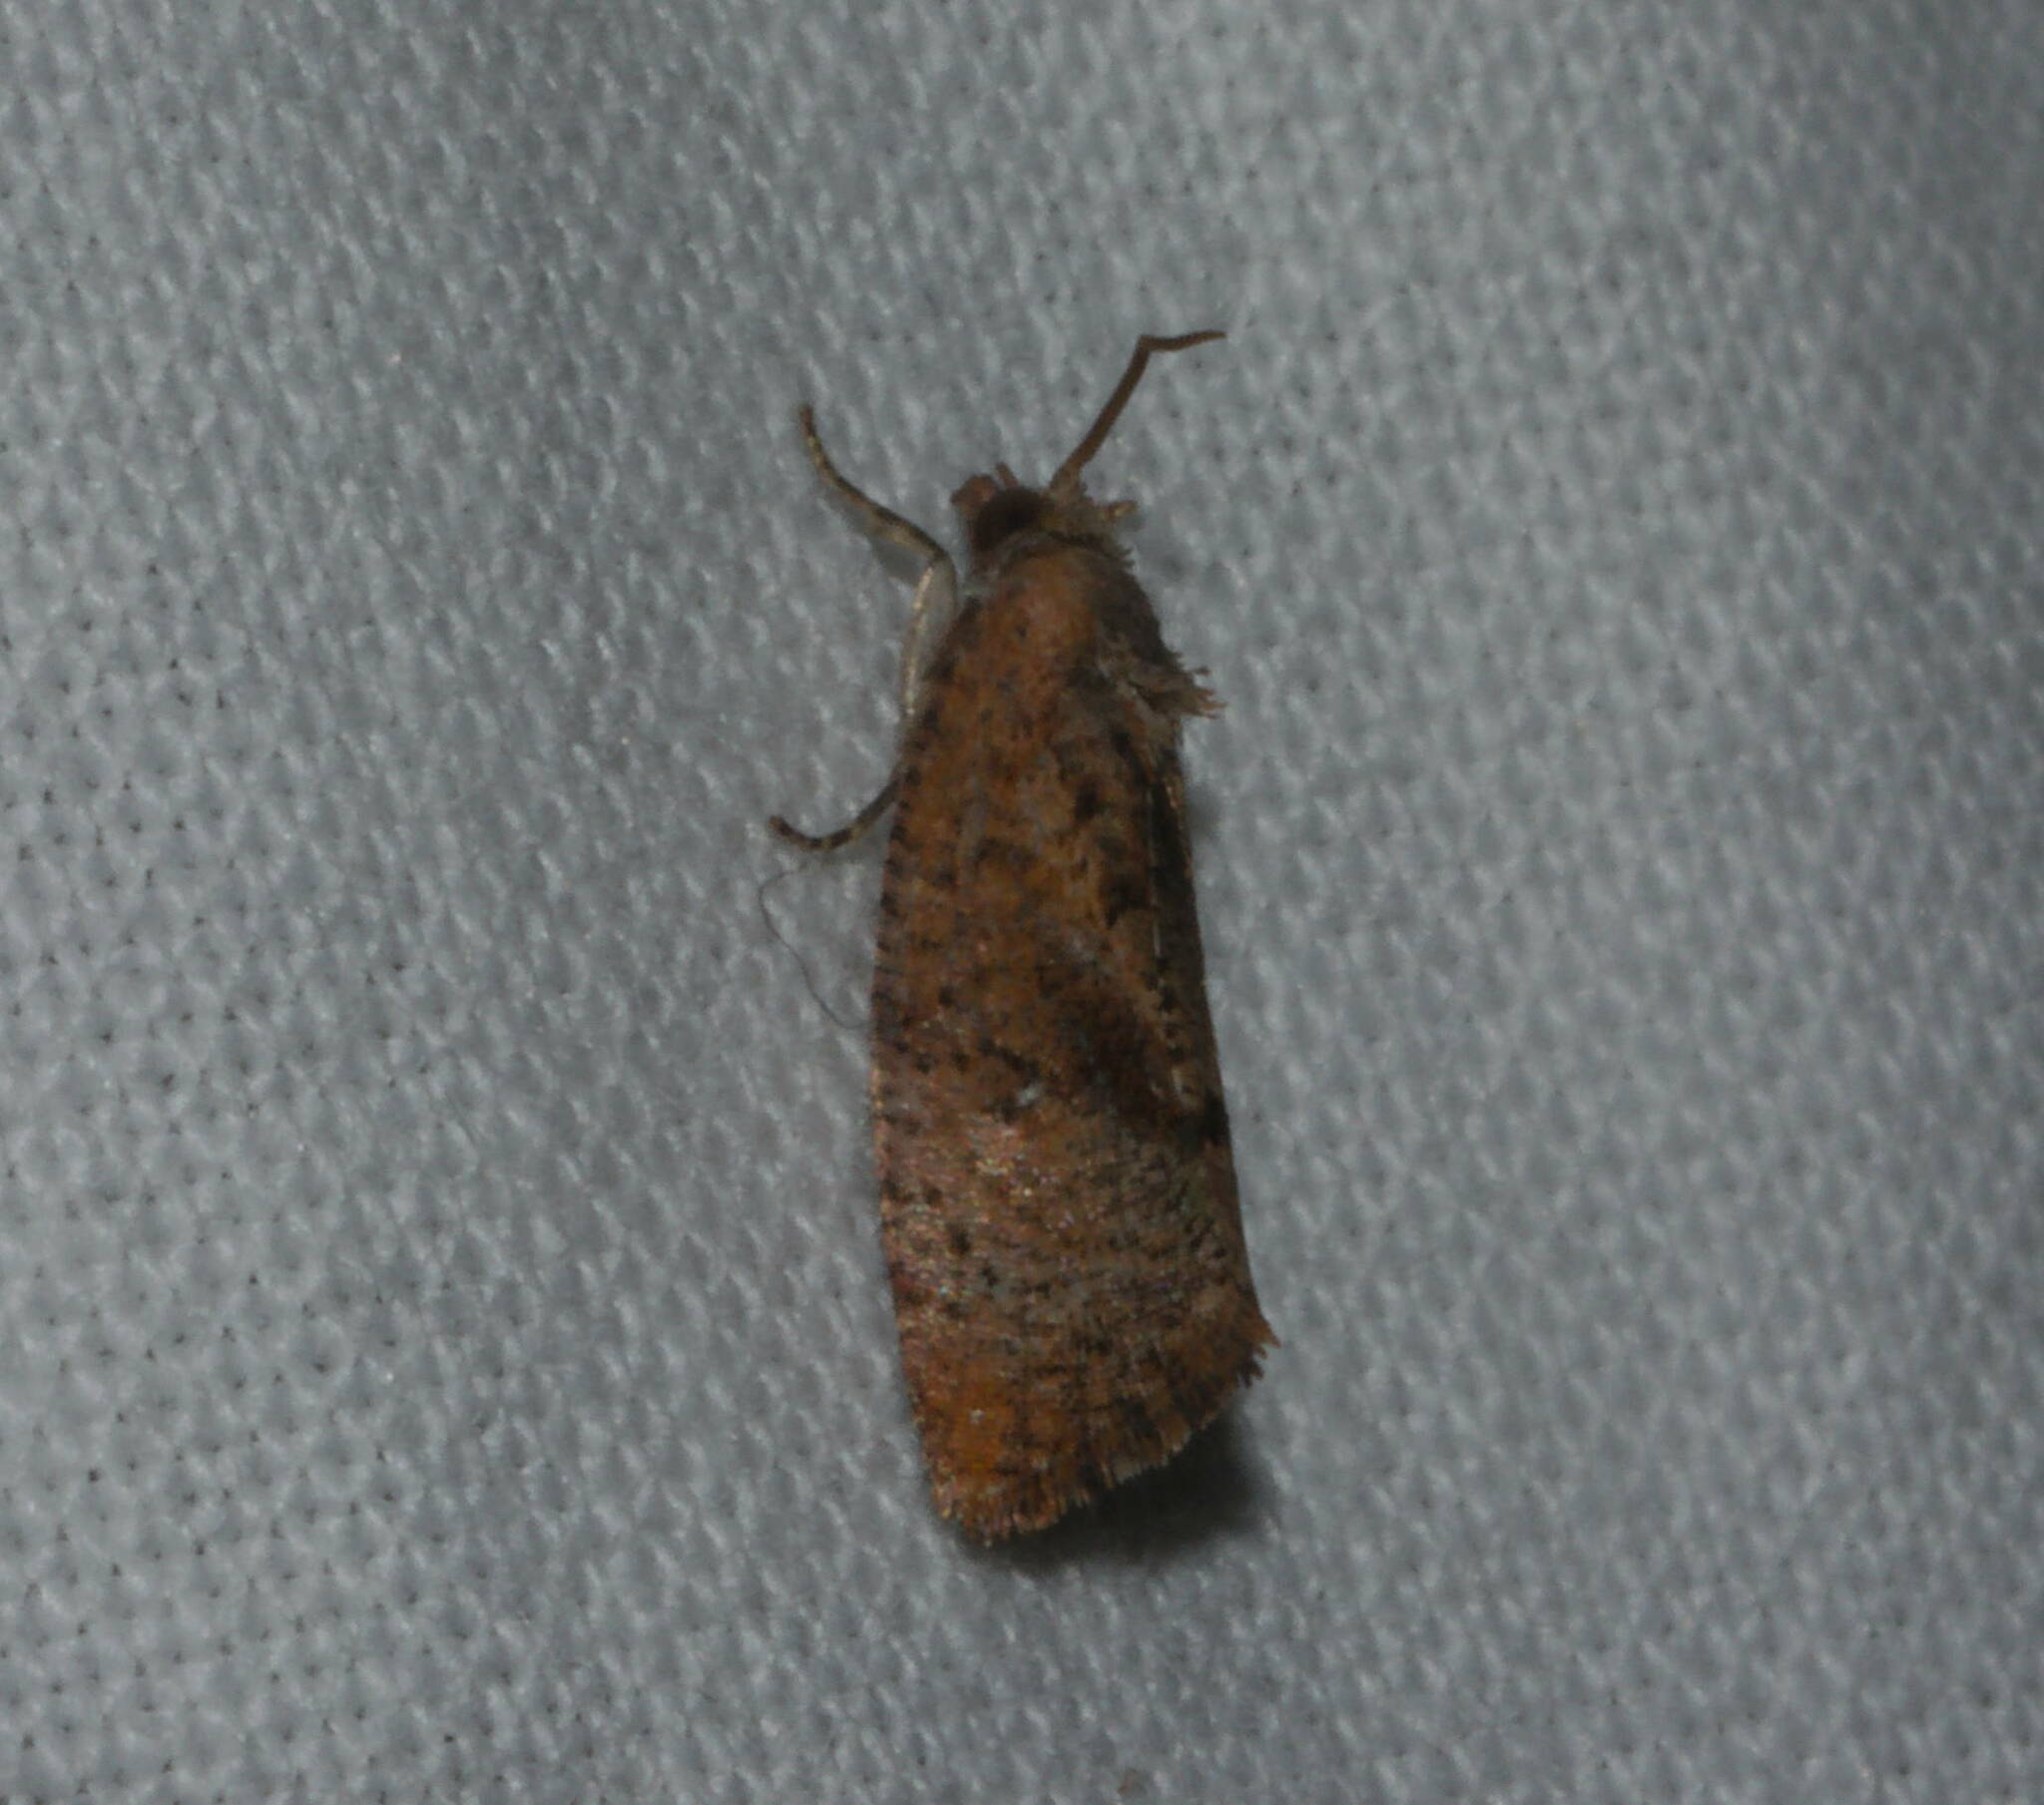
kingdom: Animalia
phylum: Arthropoda
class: Insecta
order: Lepidoptera
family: Tortricidae
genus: Cryptophlebia
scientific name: Cryptophlebia illepida
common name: Moth
